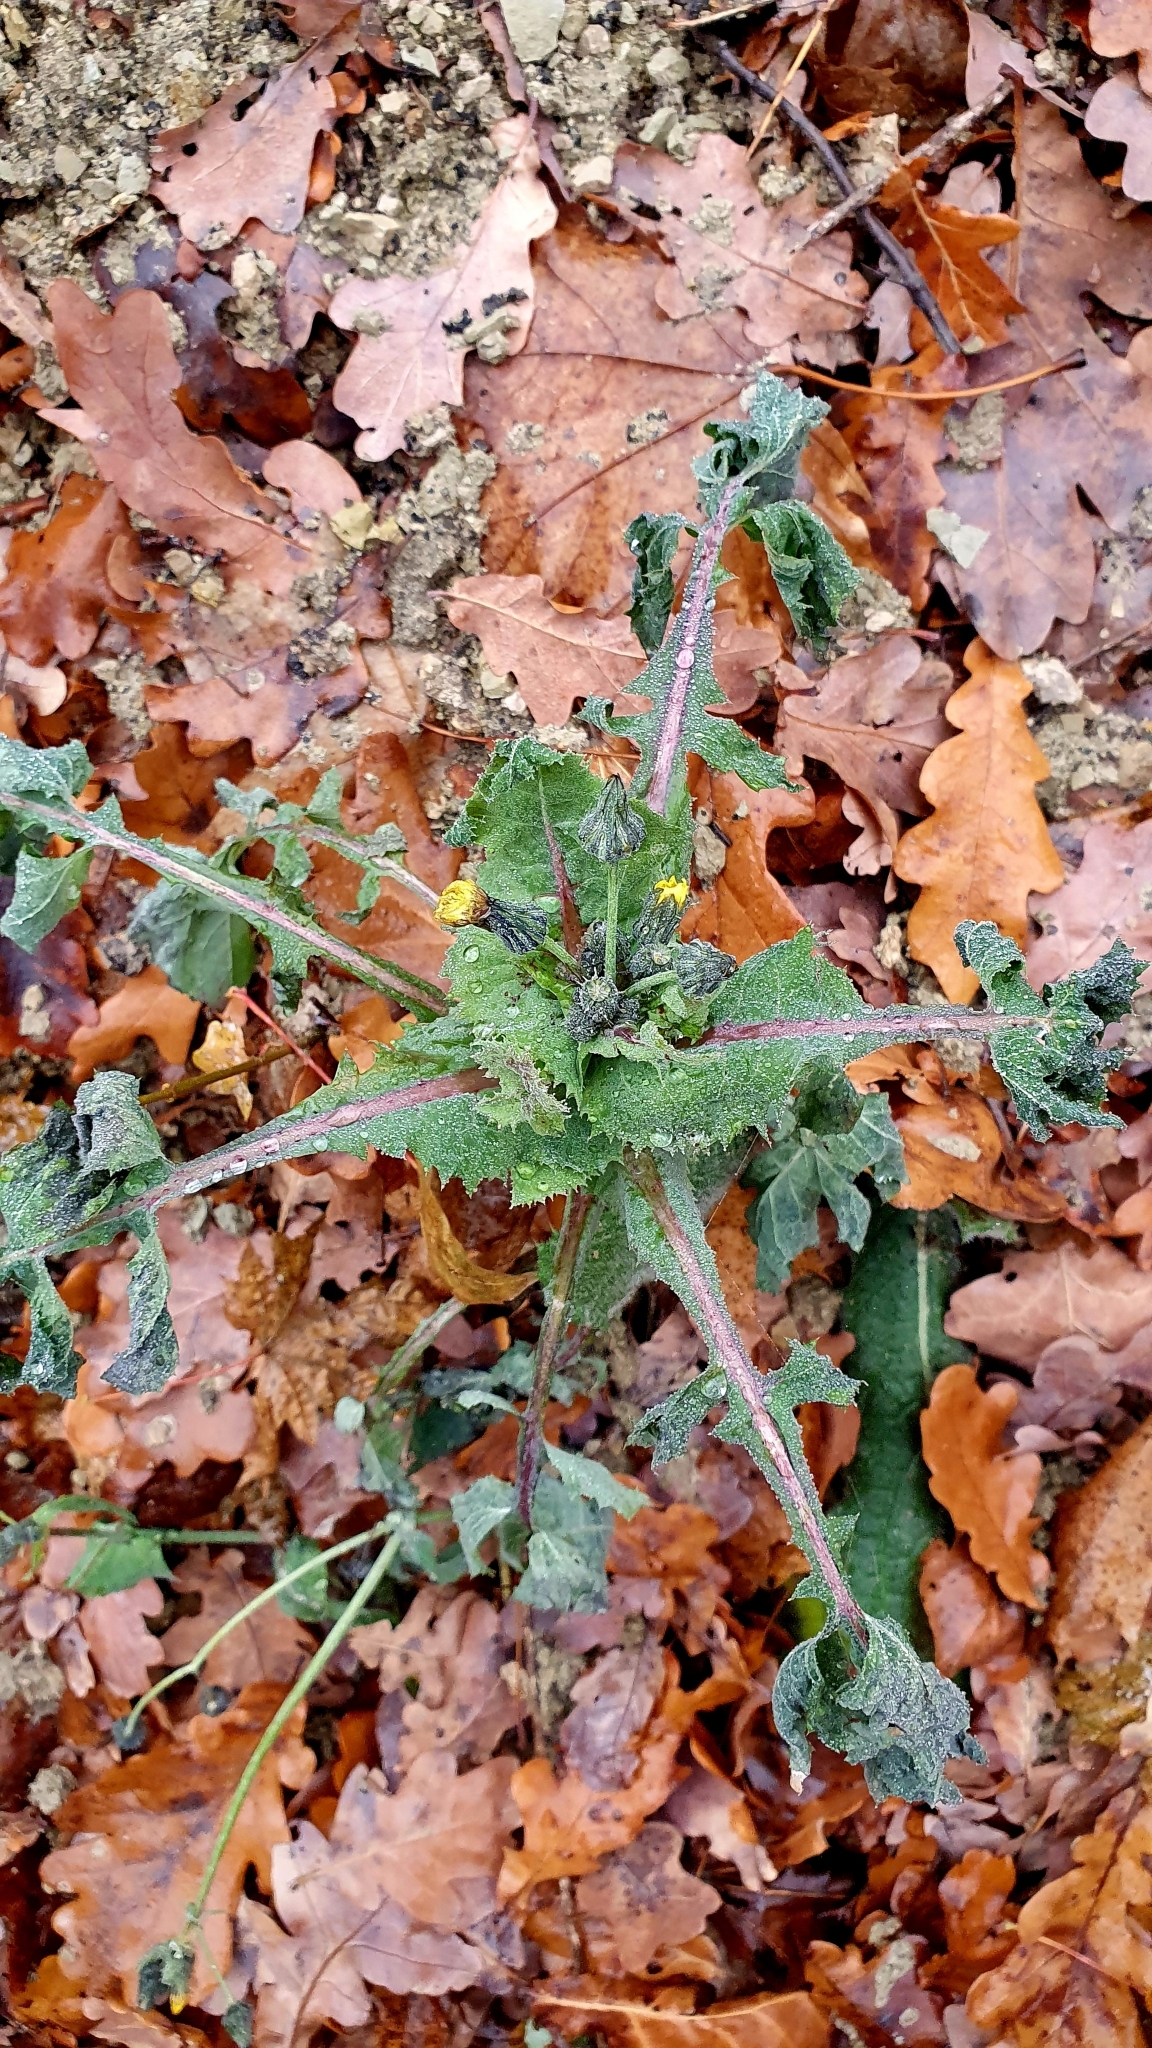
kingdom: Plantae
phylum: Tracheophyta
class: Magnoliopsida
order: Asterales
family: Asteraceae
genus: Sonchus
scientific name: Sonchus oleraceus
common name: Common sowthistle
